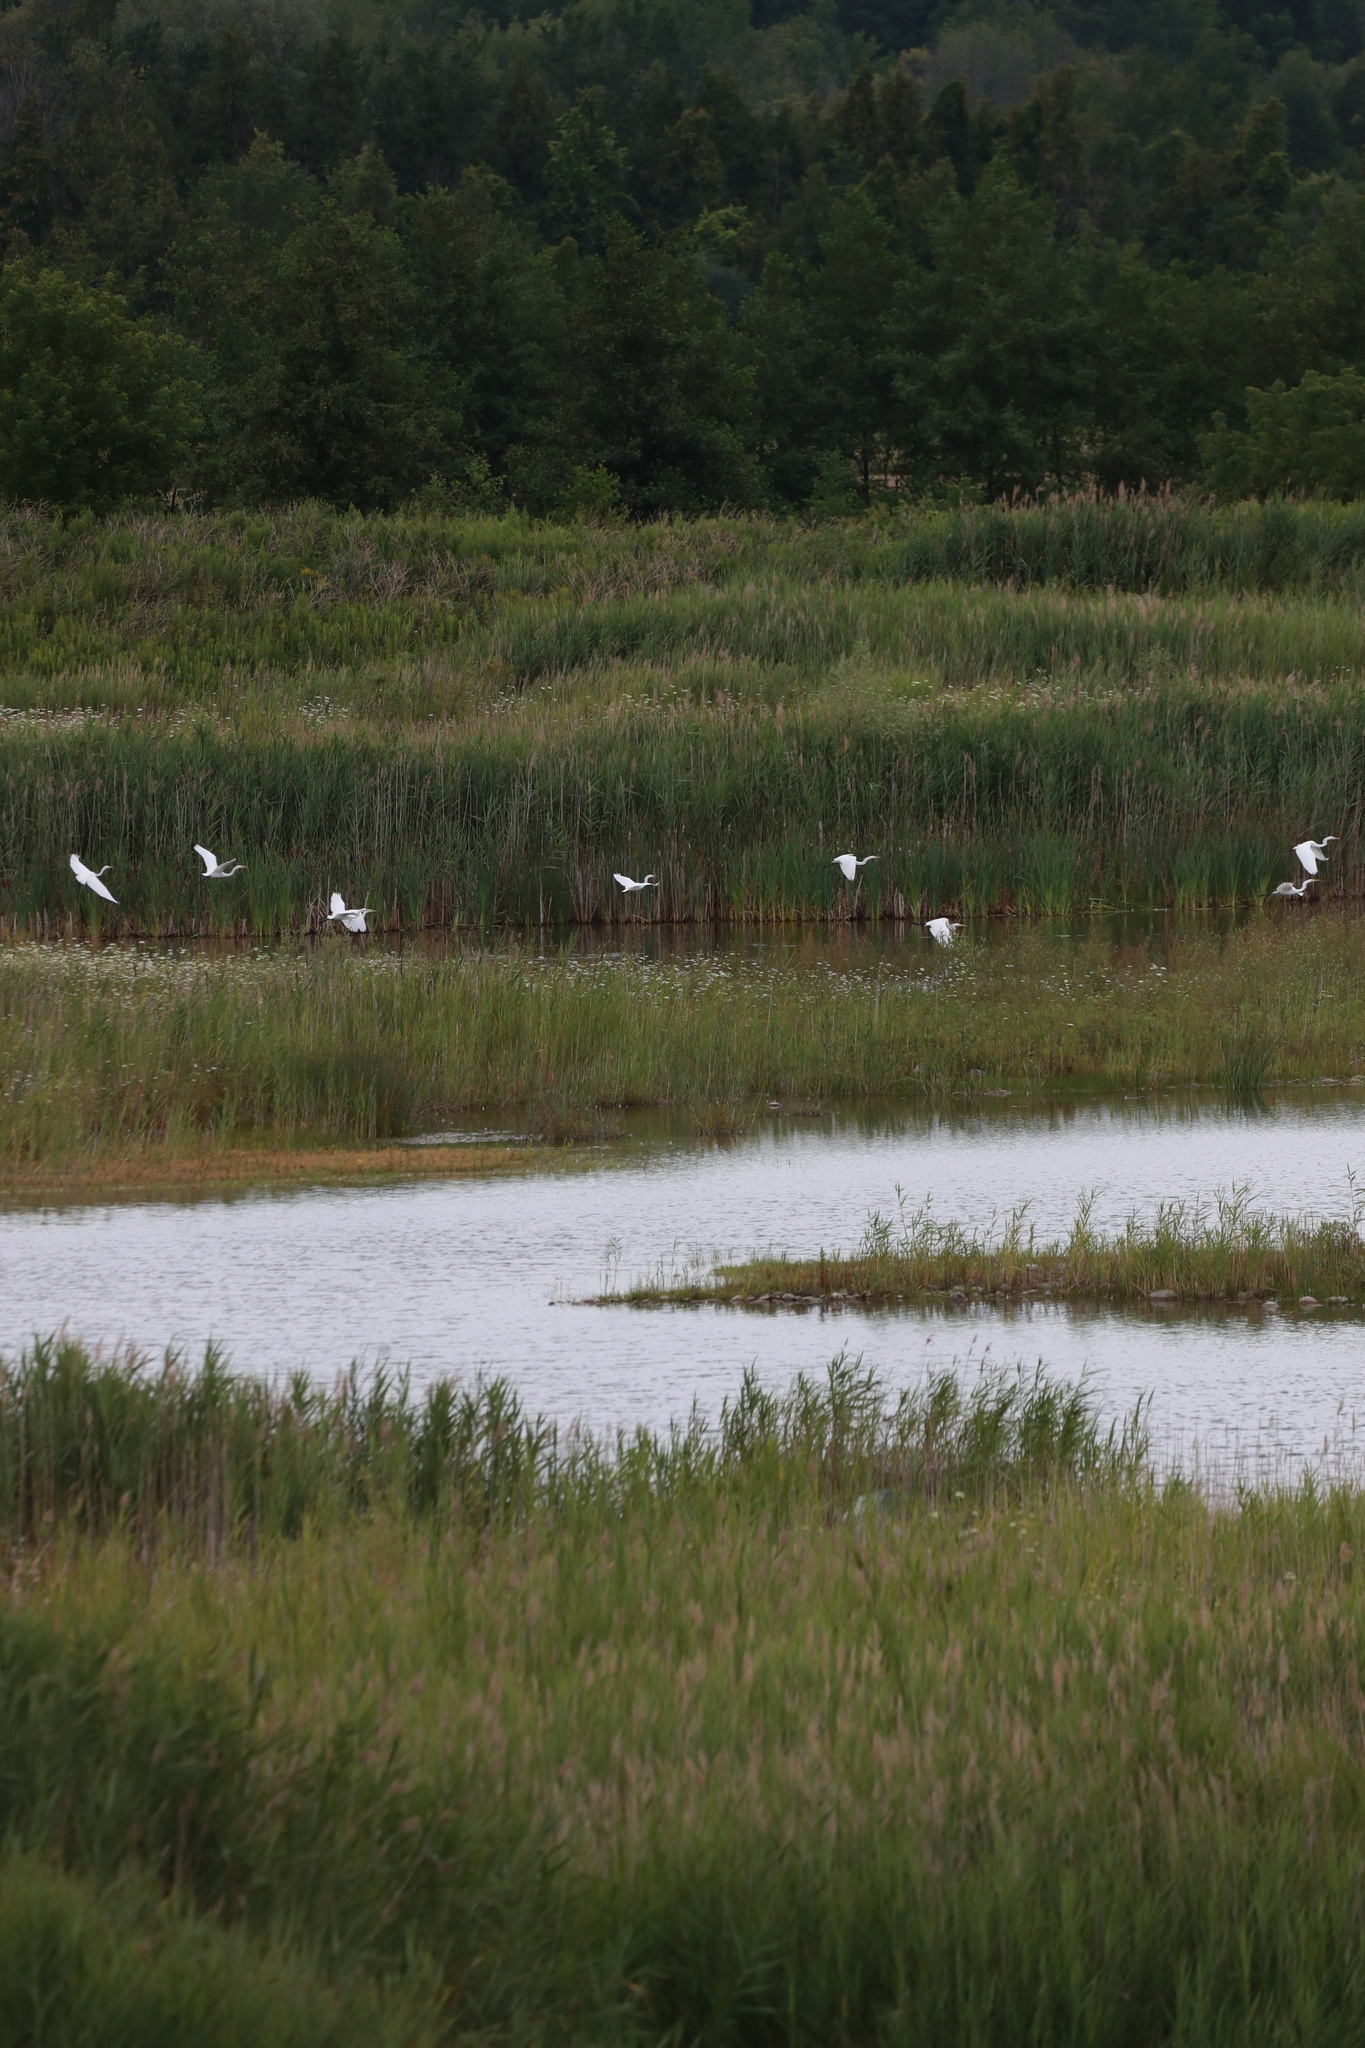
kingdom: Animalia
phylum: Chordata
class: Aves
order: Pelecaniformes
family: Ardeidae
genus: Ardea
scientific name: Ardea alba
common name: Great egret
